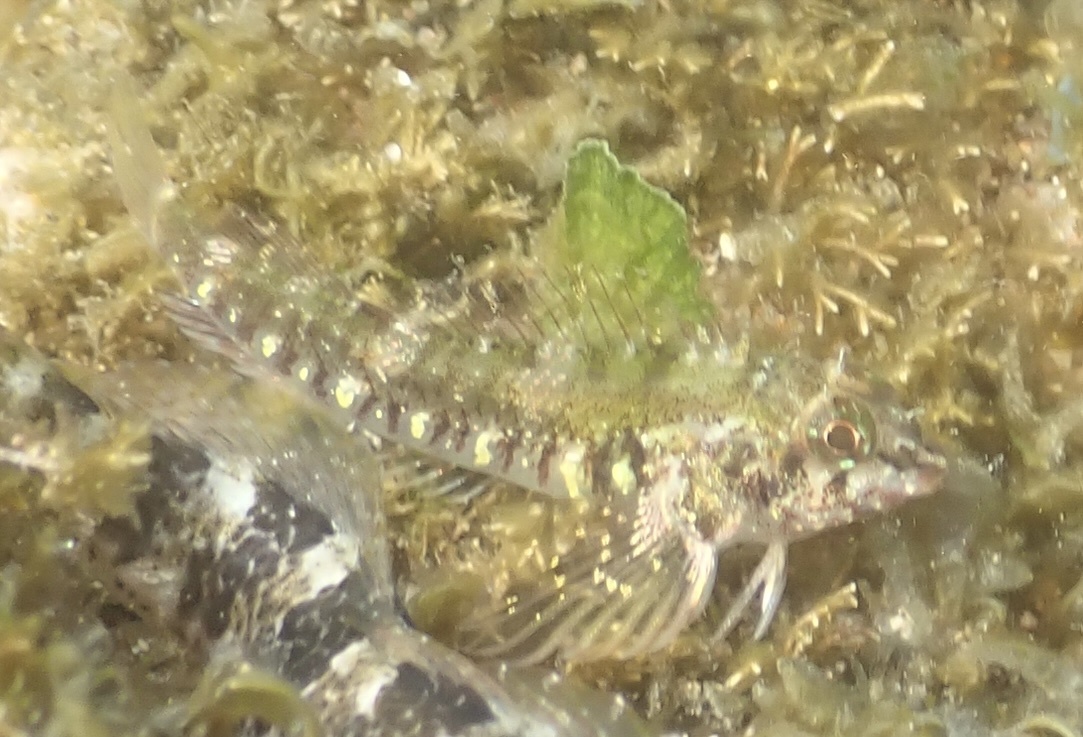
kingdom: Animalia
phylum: Chordata
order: Perciformes
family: Tripterygiidae
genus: Helcogramma
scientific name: Helcogramma rharhabe
